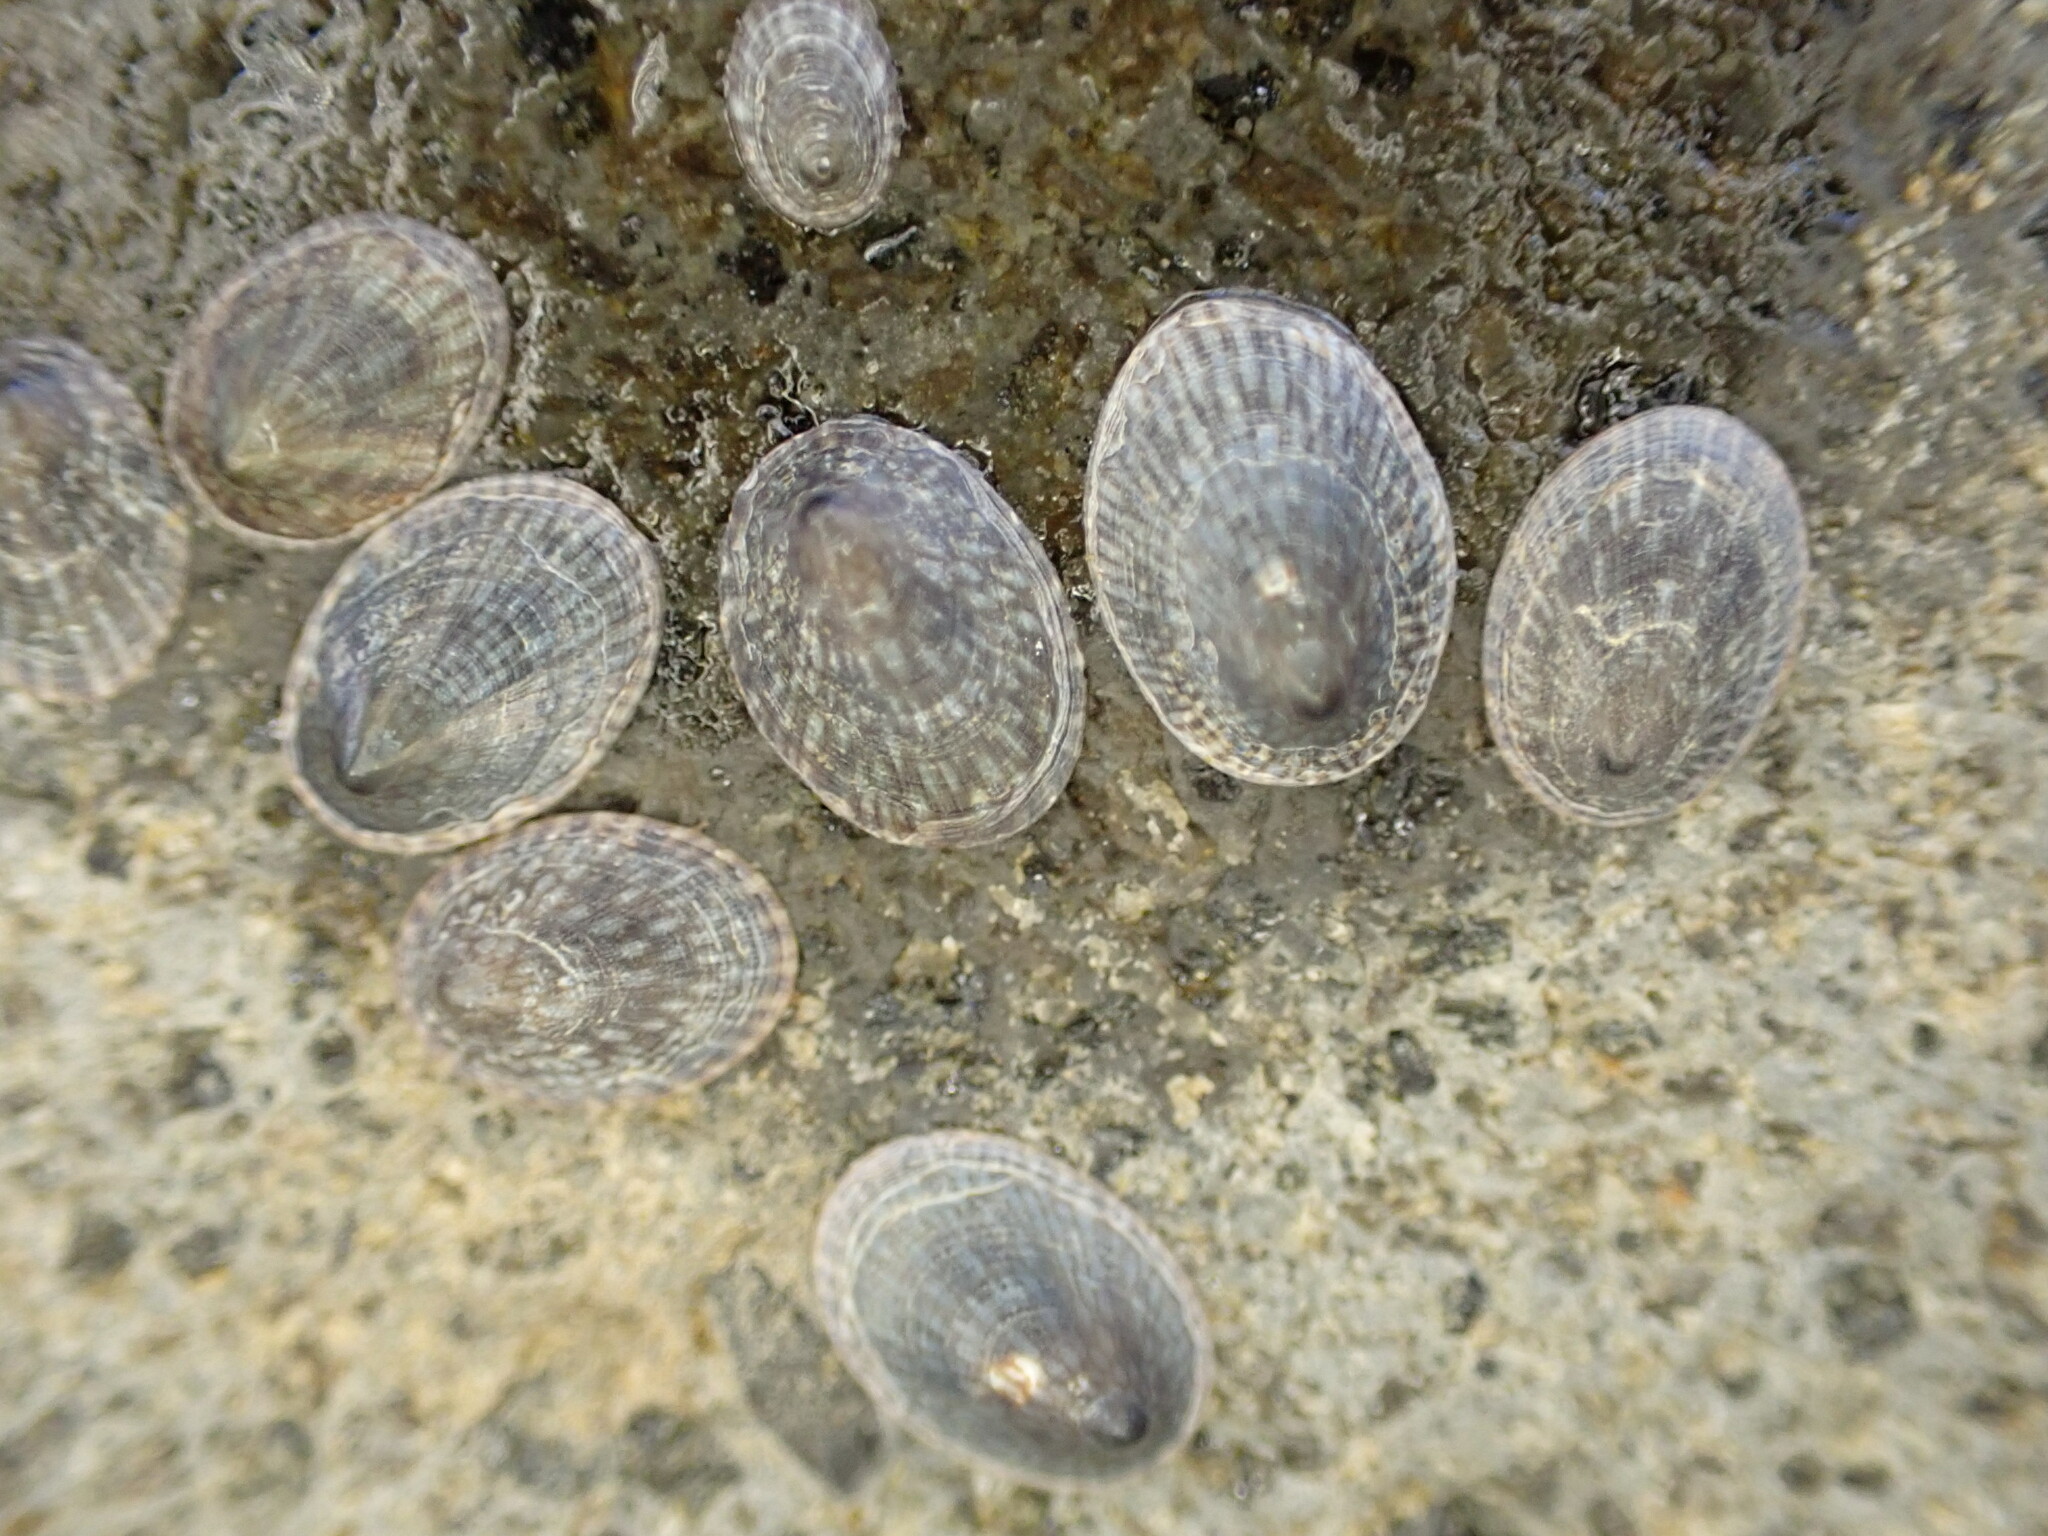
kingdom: Animalia
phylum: Mollusca
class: Gastropoda
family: Lottiidae
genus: Notoacmea
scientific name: Notoacmea
